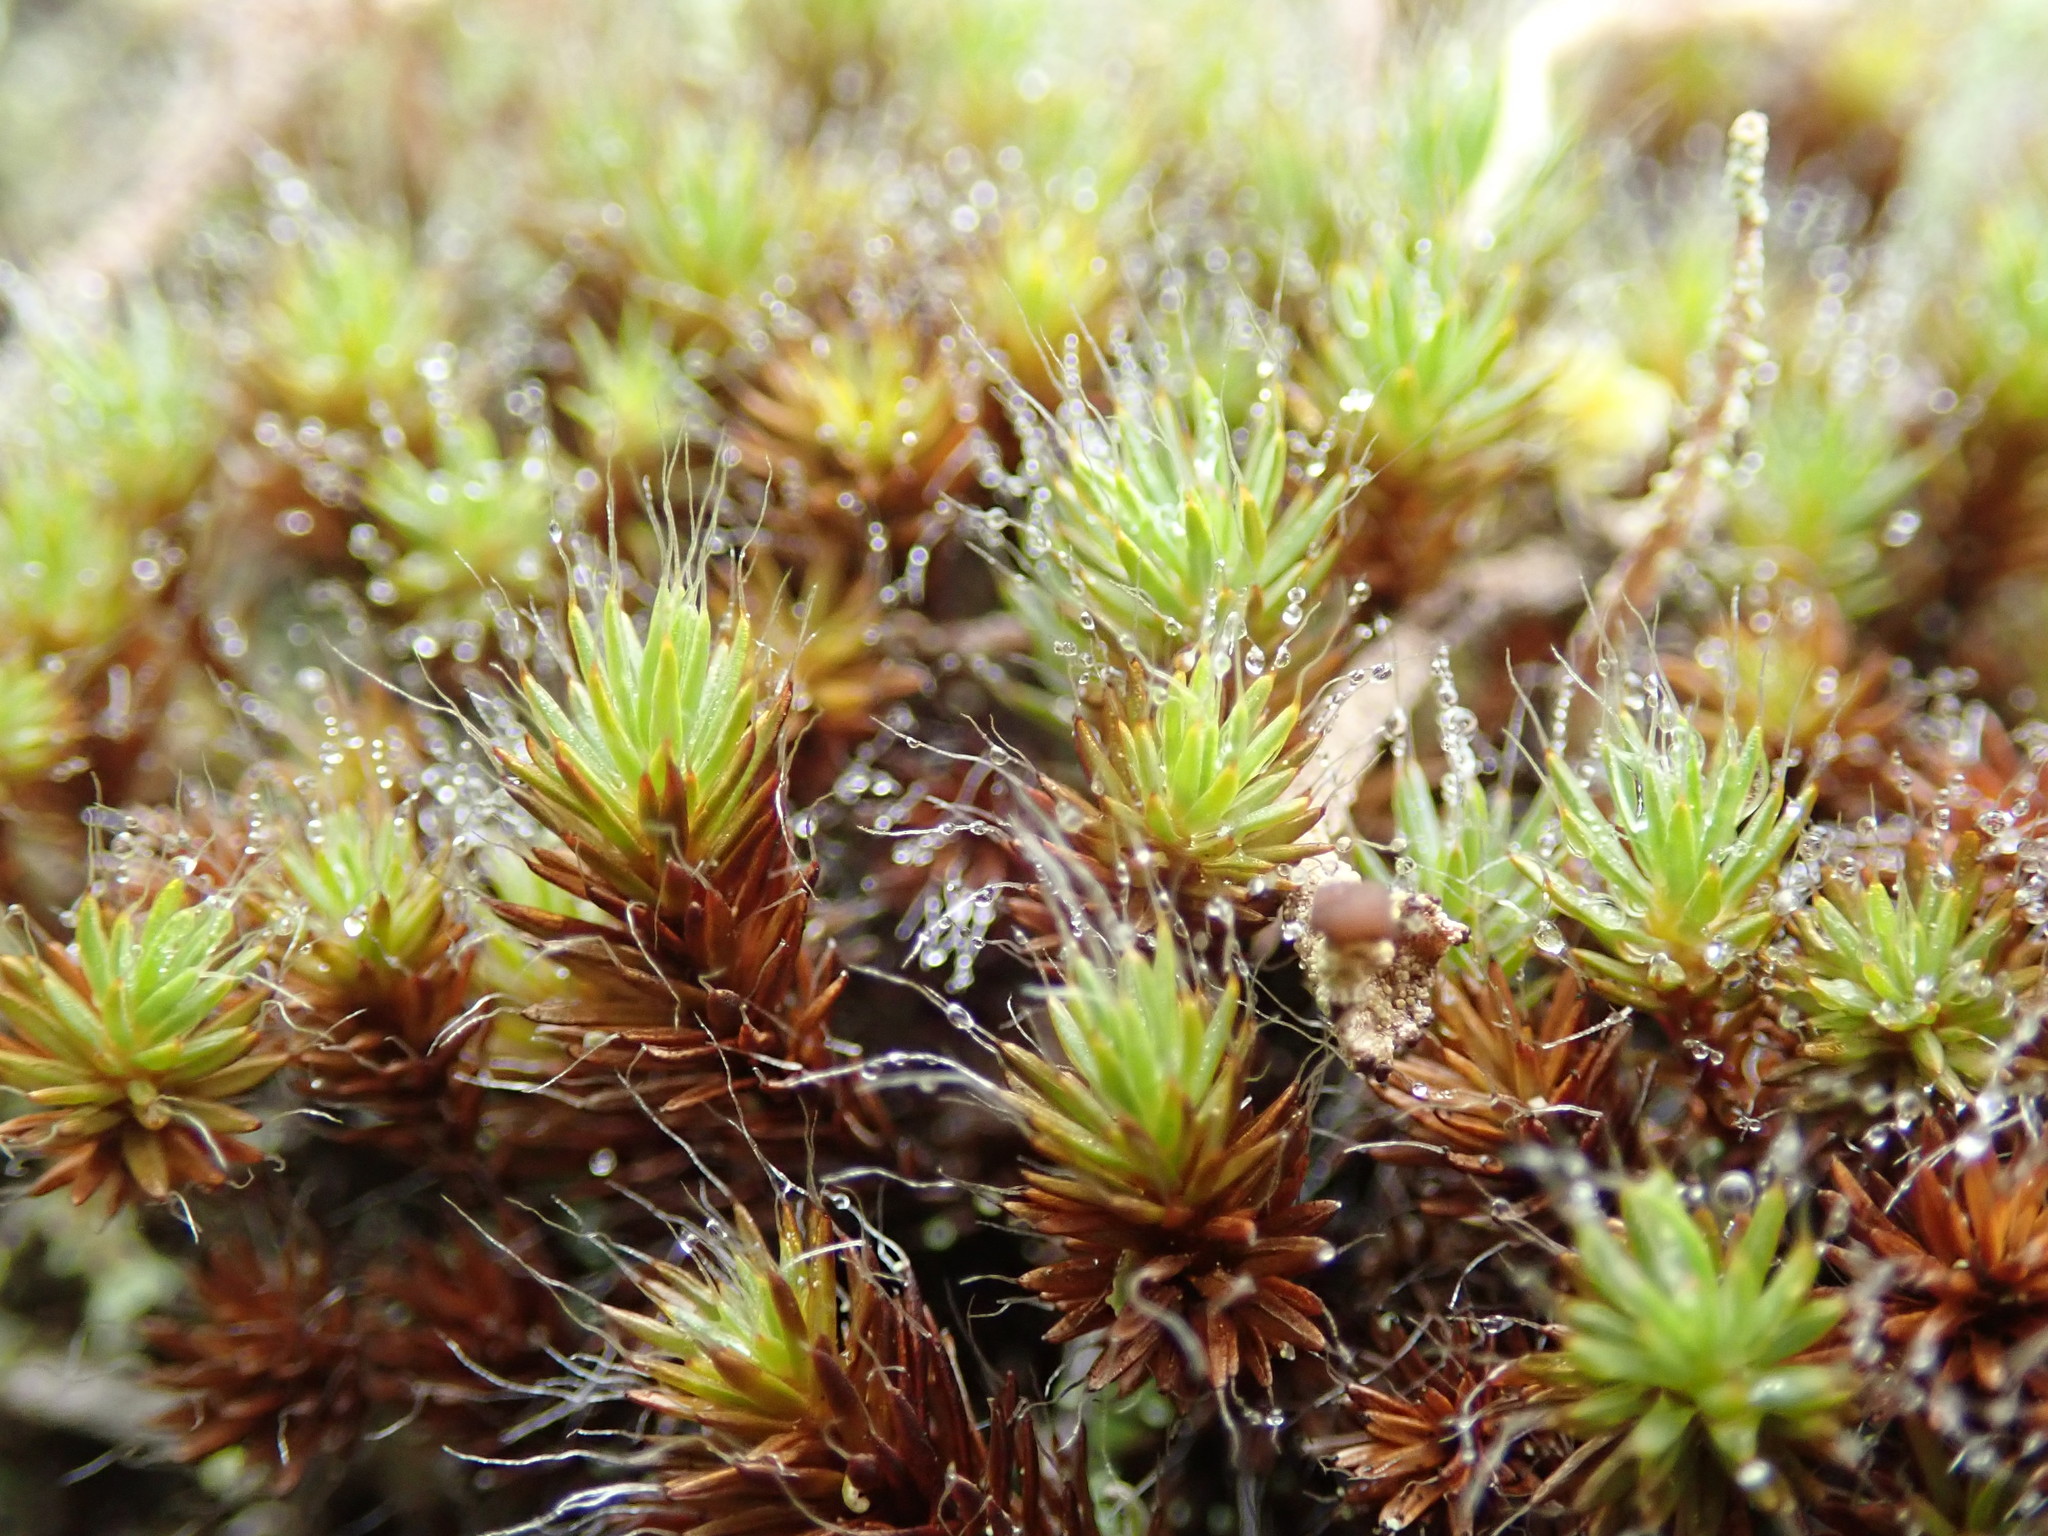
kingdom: Plantae
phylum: Bryophyta
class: Polytrichopsida
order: Polytrichales
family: Polytrichaceae
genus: Polytrichum
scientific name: Polytrichum piliferum
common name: Bristly haircap
